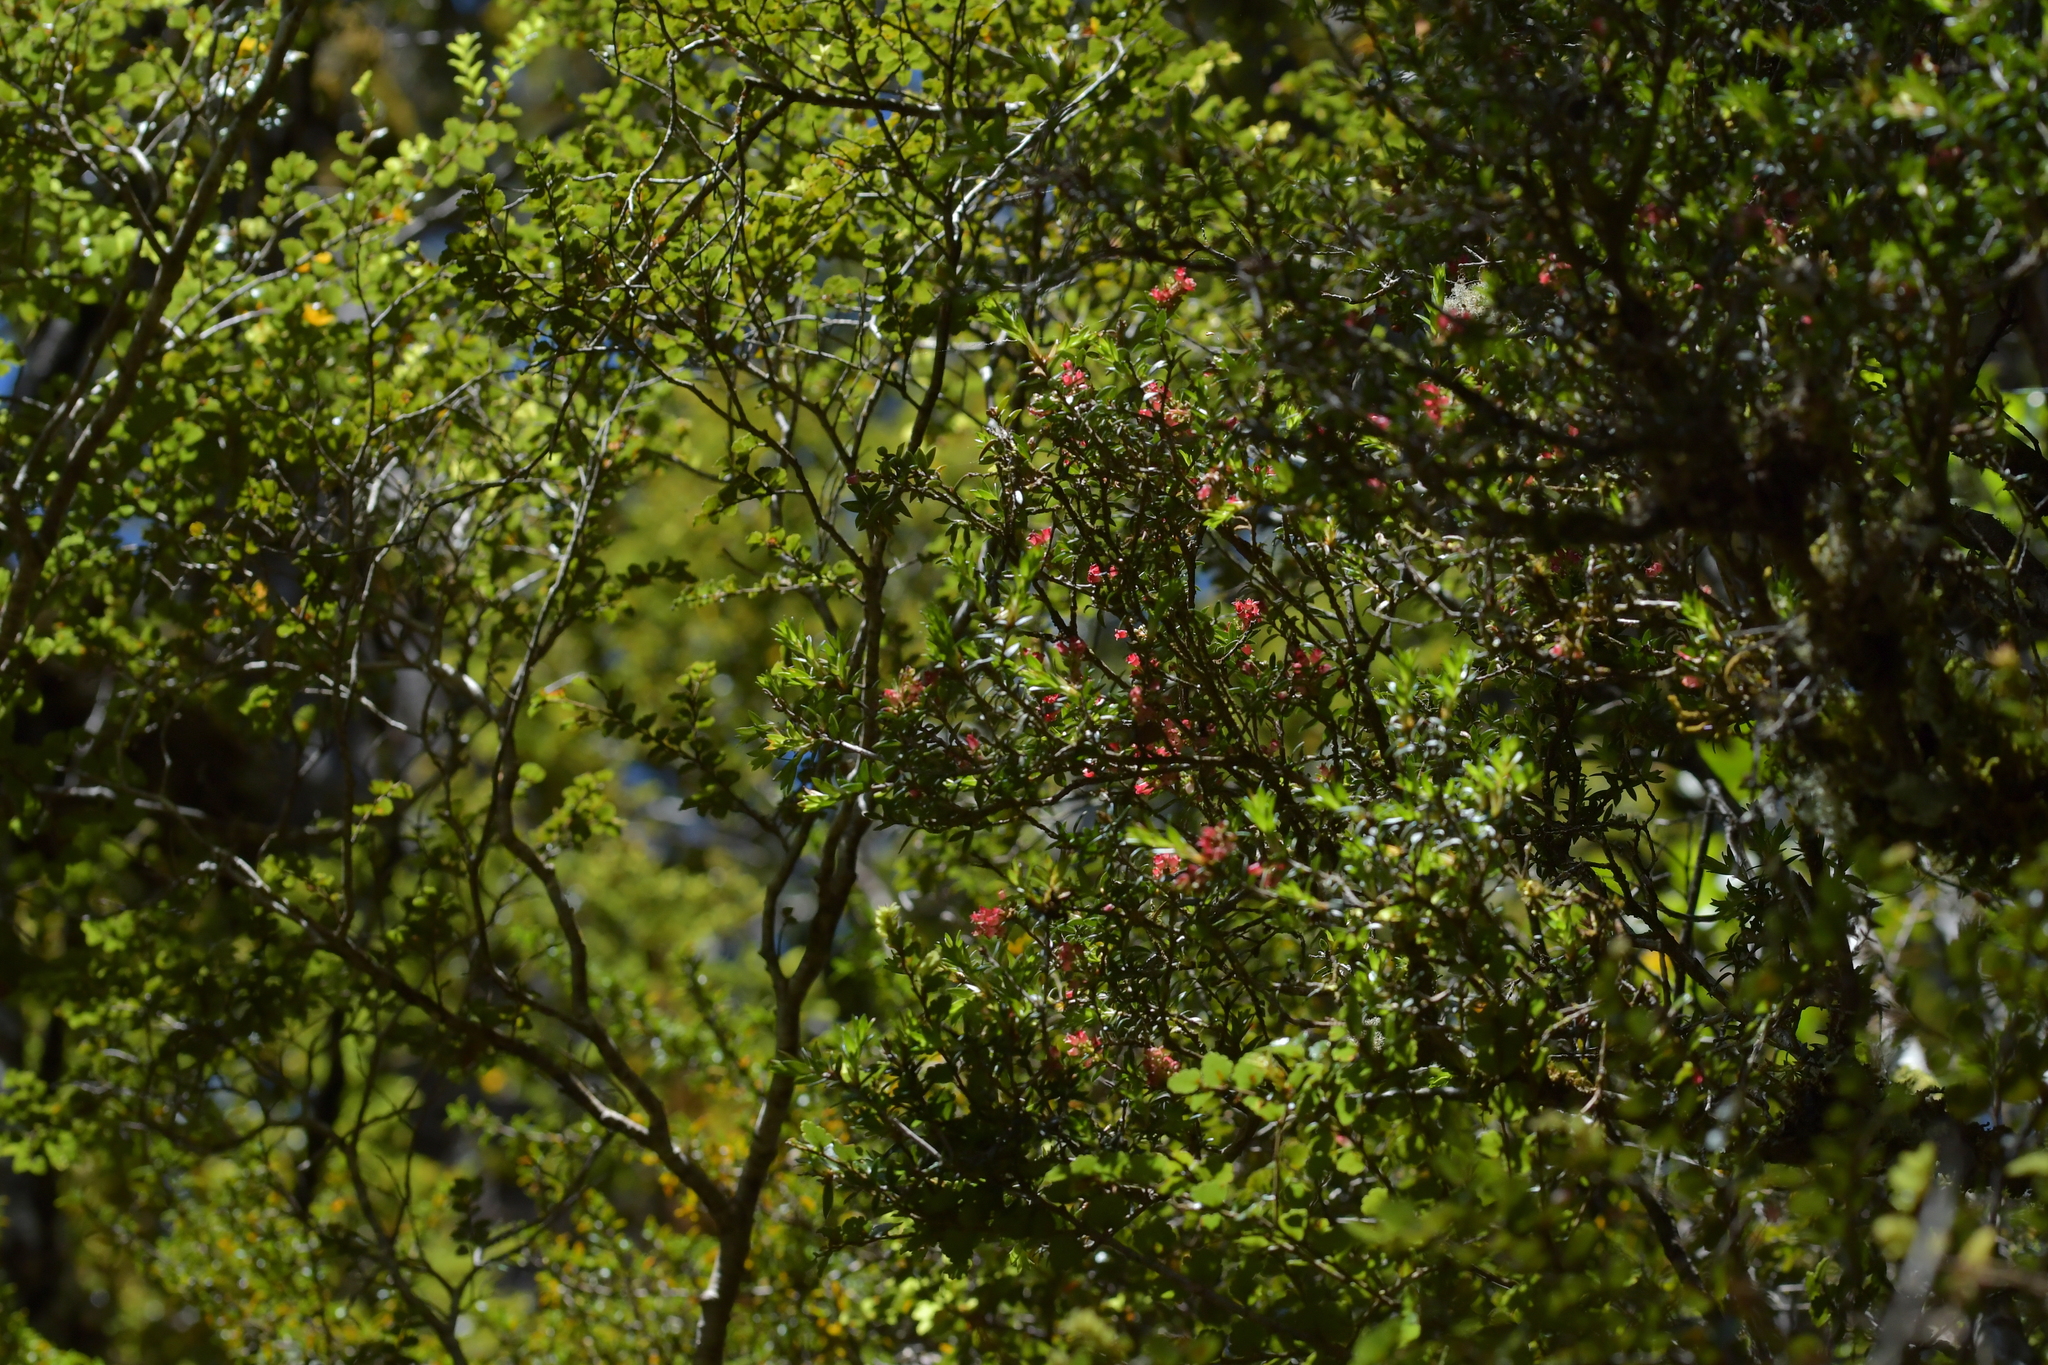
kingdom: Plantae
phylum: Tracheophyta
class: Magnoliopsida
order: Ericales
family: Ericaceae
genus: Archeria
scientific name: Archeria traversii
